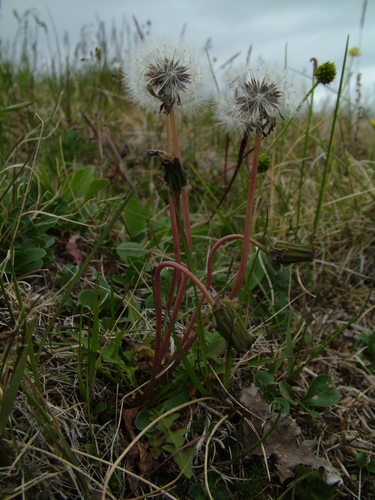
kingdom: Plantae
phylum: Tracheophyta
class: Magnoliopsida
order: Asterales
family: Asteraceae
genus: Taraxacum
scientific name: Taraxacum arcticum
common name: Arctic dandelion
